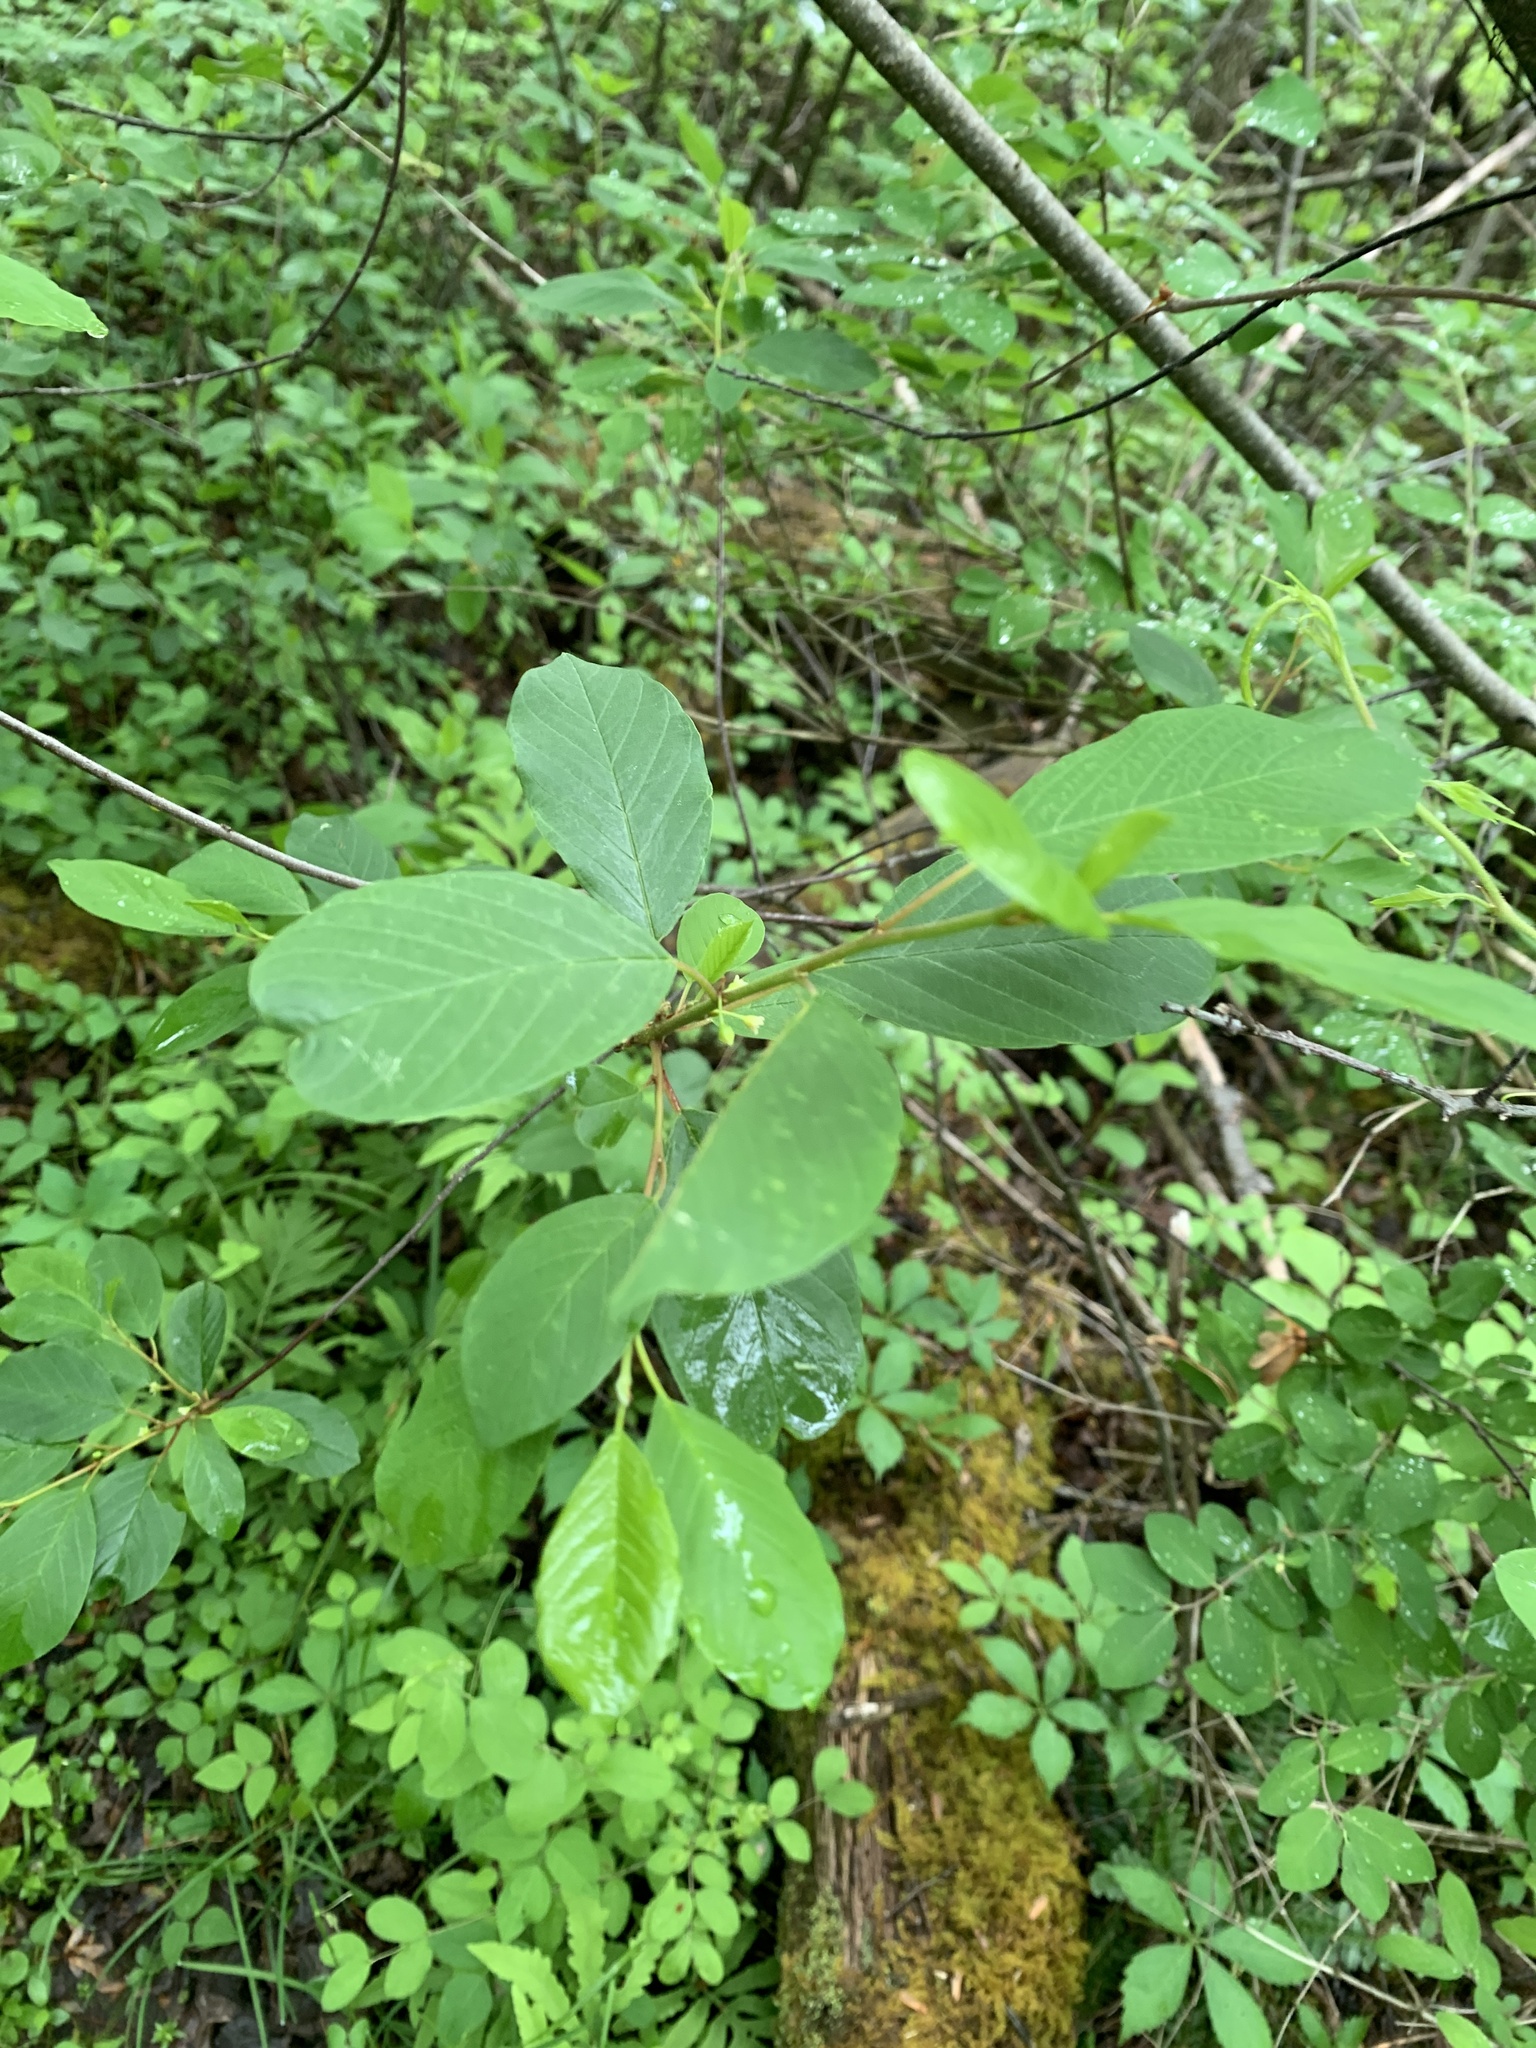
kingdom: Plantae
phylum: Tracheophyta
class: Magnoliopsida
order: Rosales
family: Rhamnaceae
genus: Frangula
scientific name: Frangula alnus
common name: Alder buckthorn
